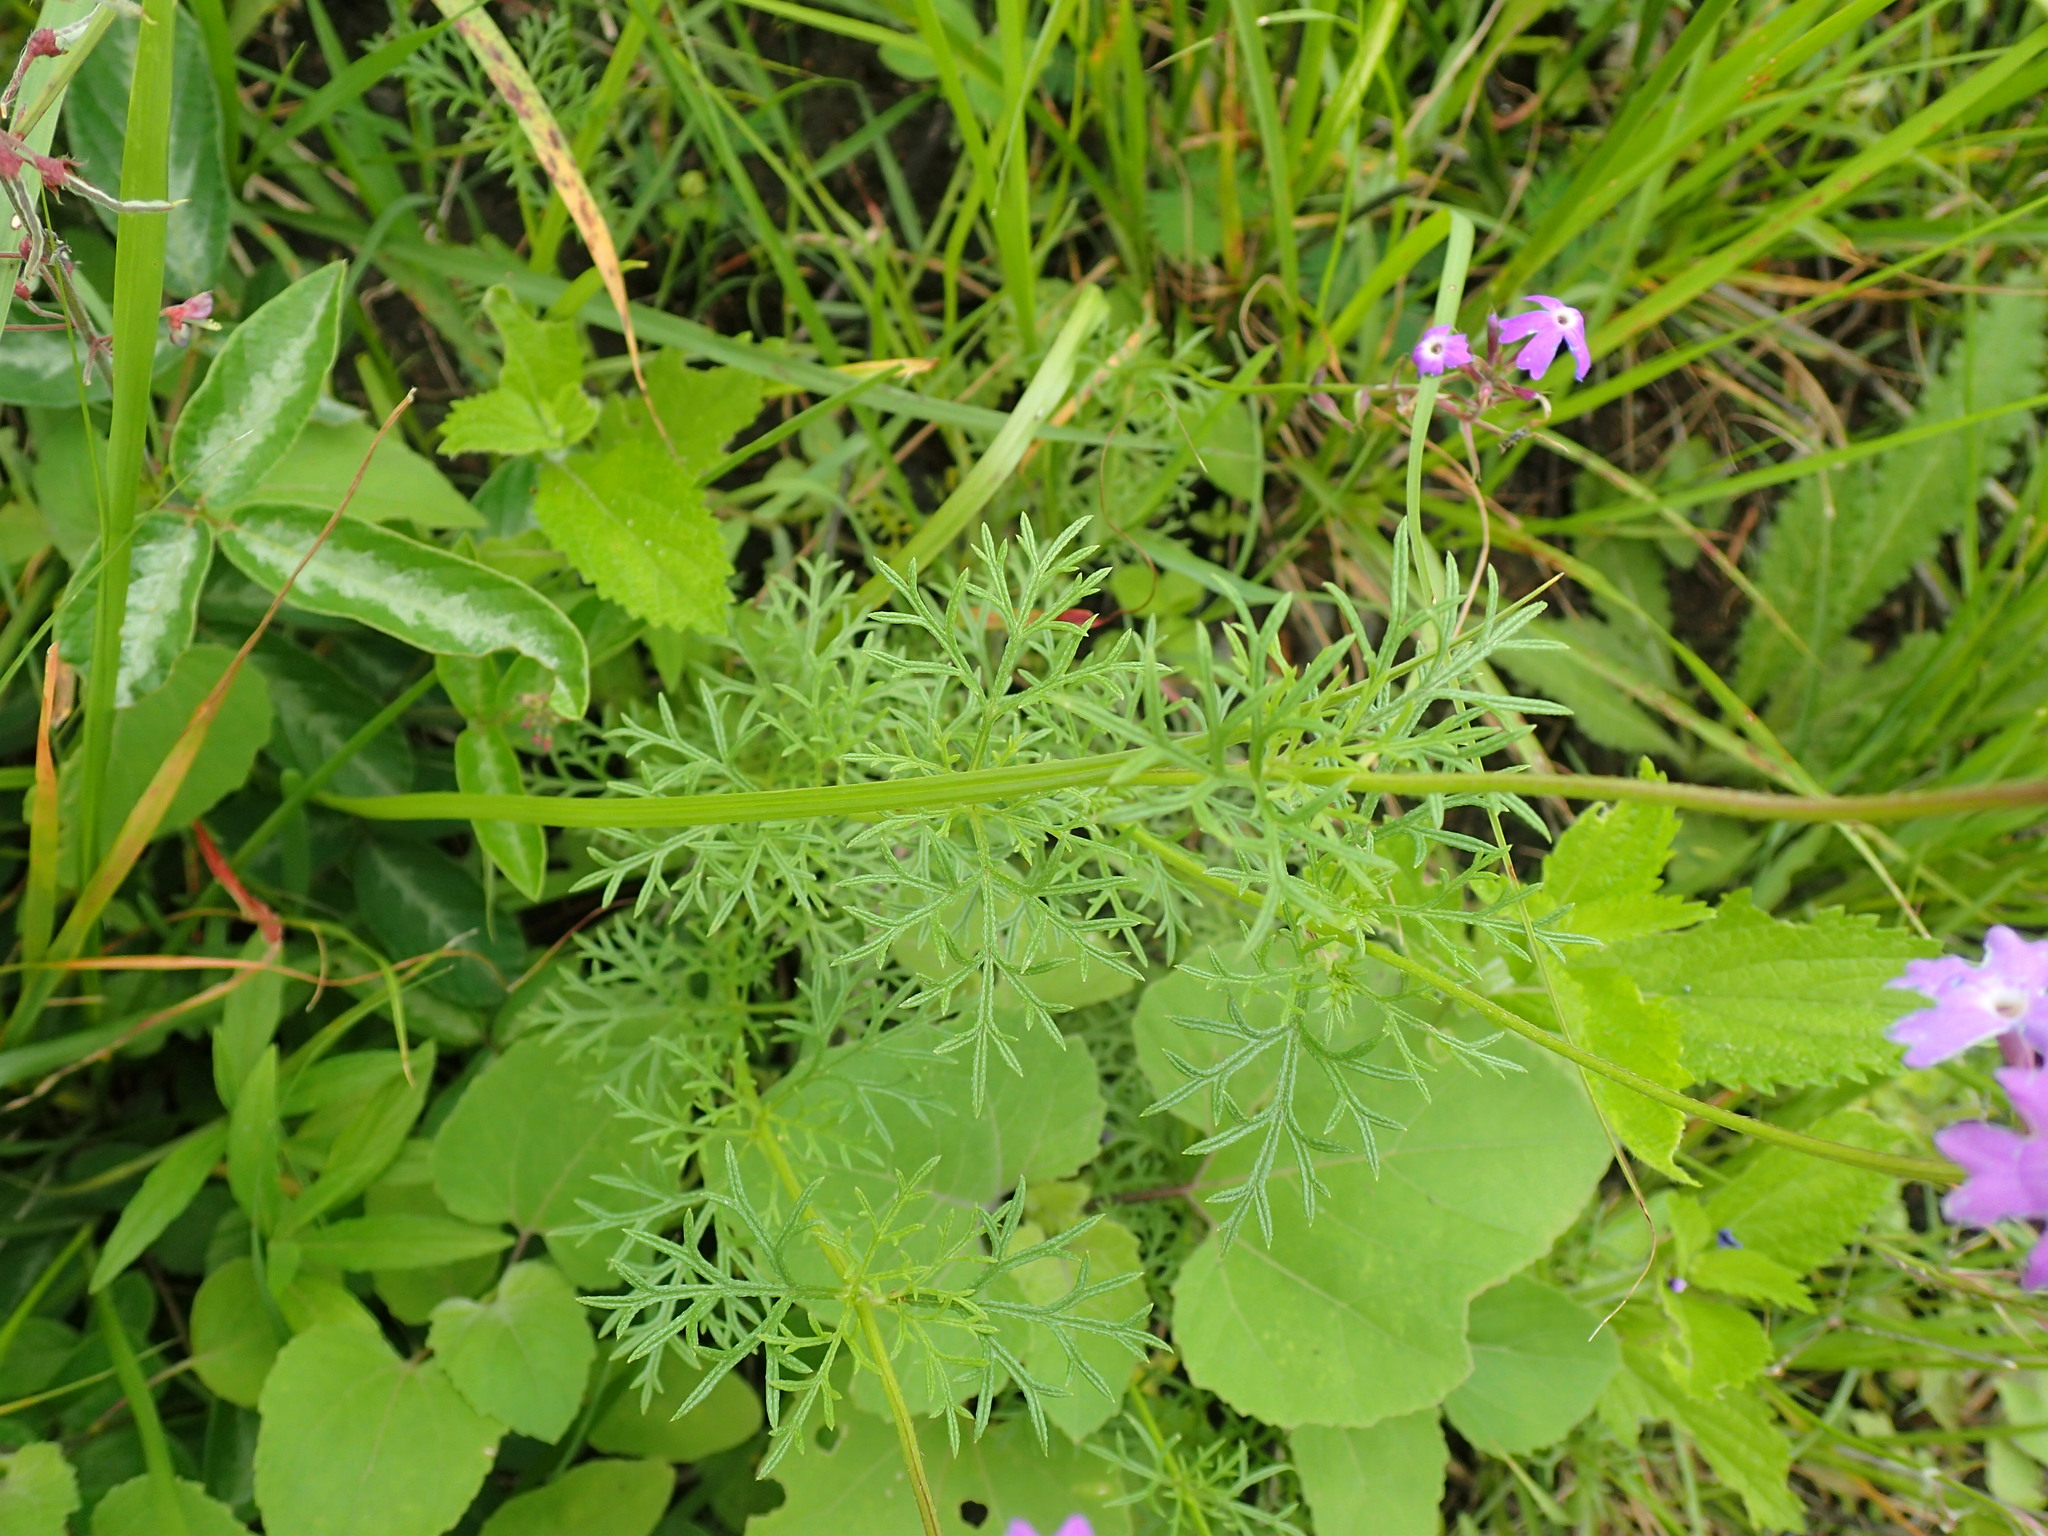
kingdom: Plantae
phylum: Tracheophyta
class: Magnoliopsida
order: Lamiales
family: Verbenaceae
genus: Verbena
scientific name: Verbena aristigera
